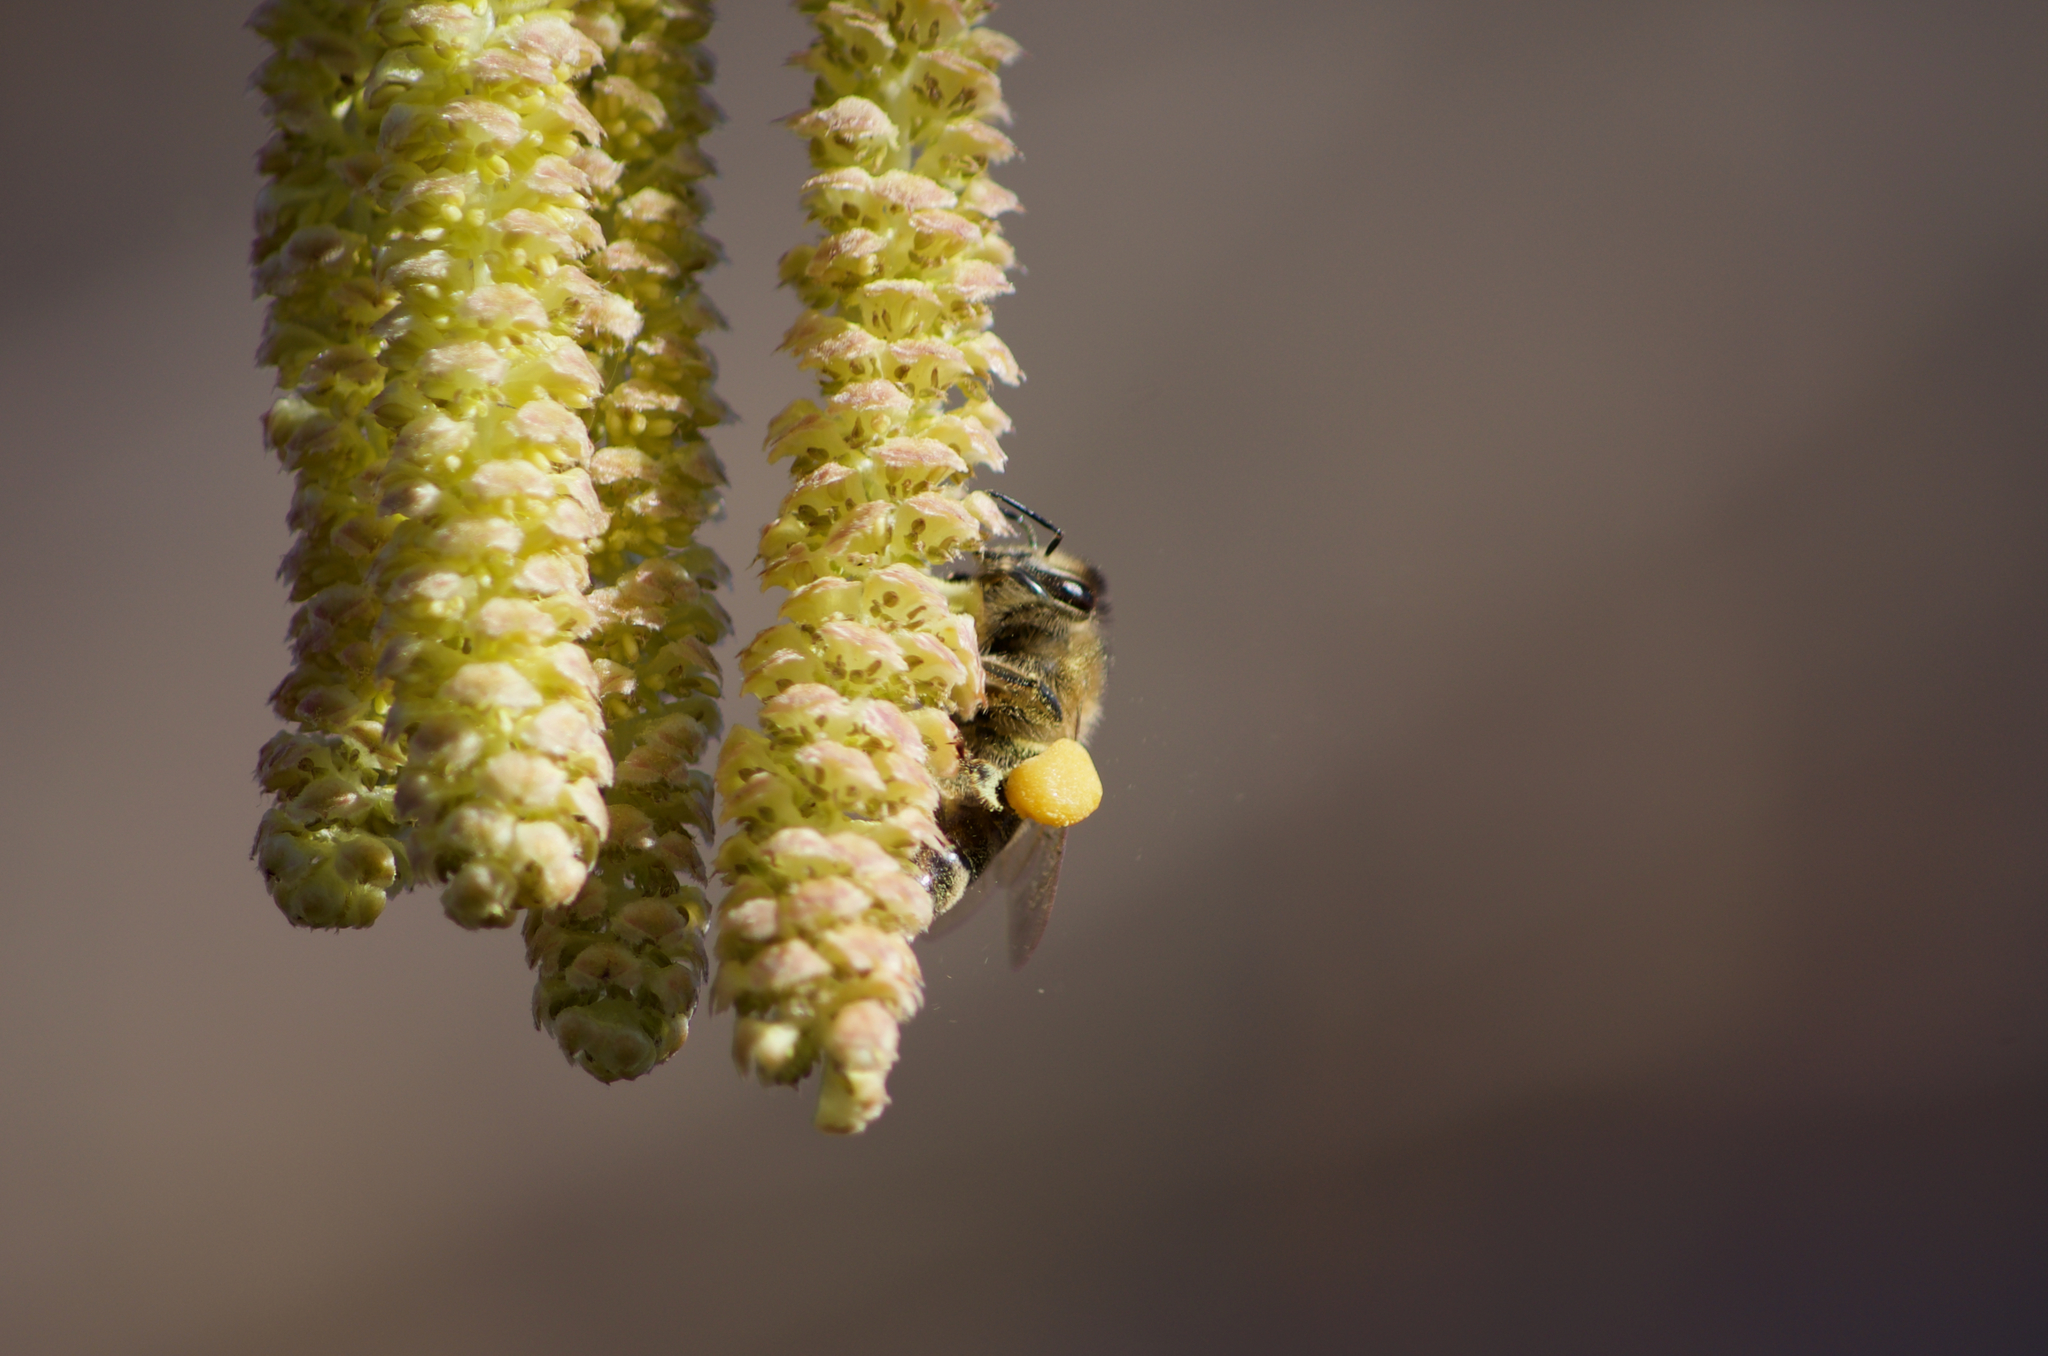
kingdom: Animalia
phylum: Arthropoda
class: Insecta
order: Hymenoptera
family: Apidae
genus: Apis
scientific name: Apis mellifera
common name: Honey bee
